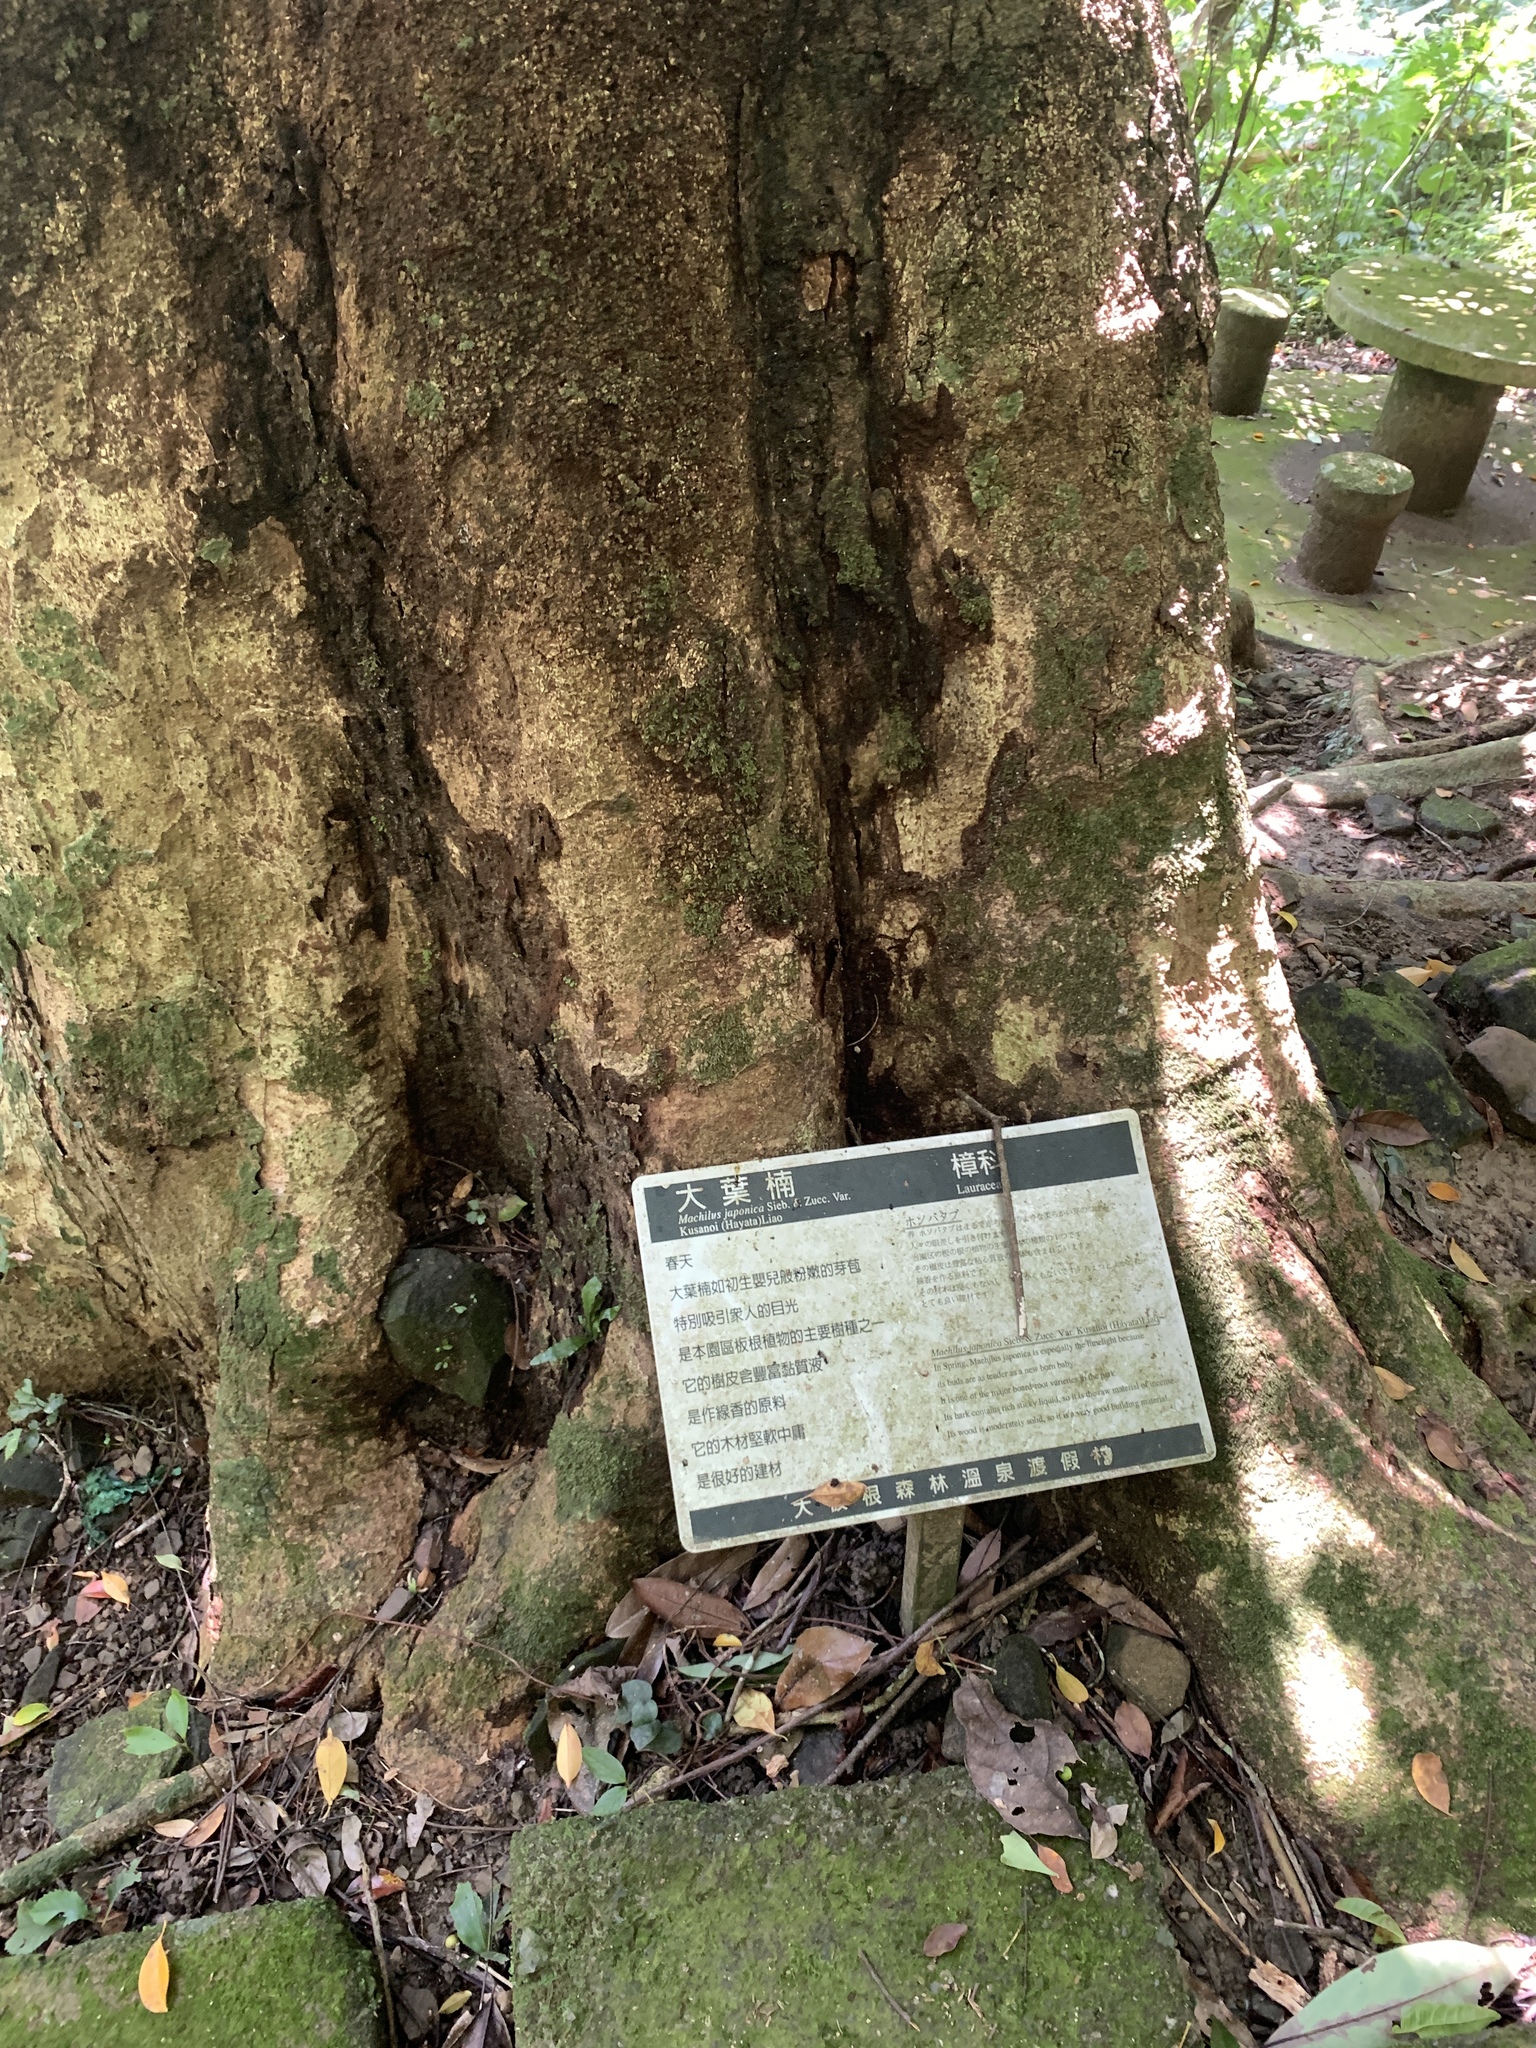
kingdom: Plantae
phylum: Tracheophyta
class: Magnoliopsida
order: Laurales
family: Lauraceae
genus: Machilus
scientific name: Machilus japonica
